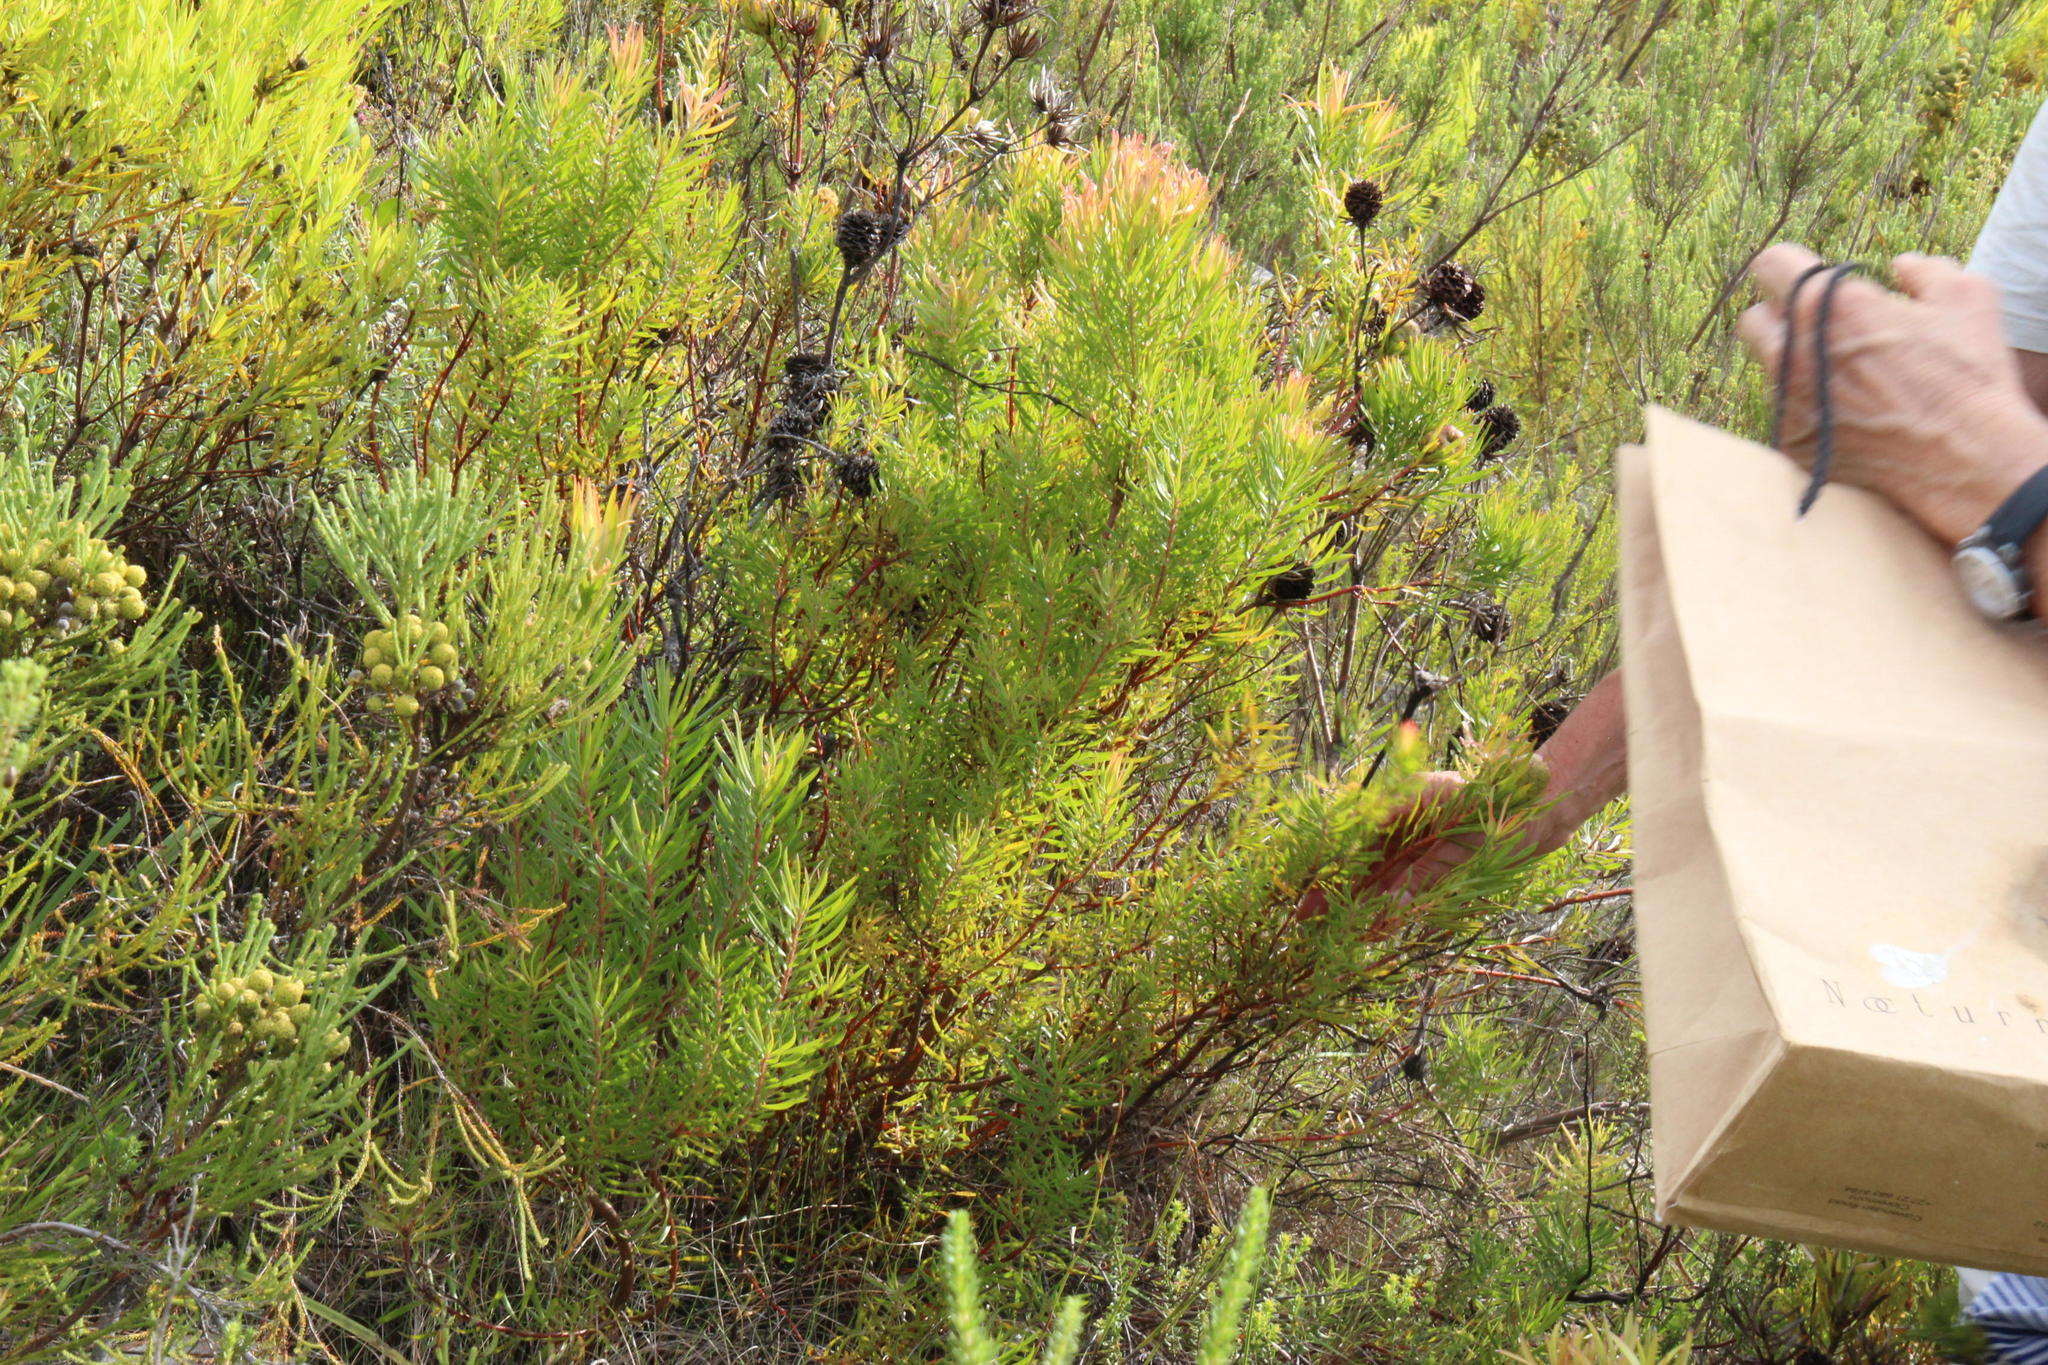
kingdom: Plantae
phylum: Tracheophyta
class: Magnoliopsida
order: Proteales
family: Proteaceae
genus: Leucadendron
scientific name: Leucadendron spissifolium
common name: Spear-leaf conebush
